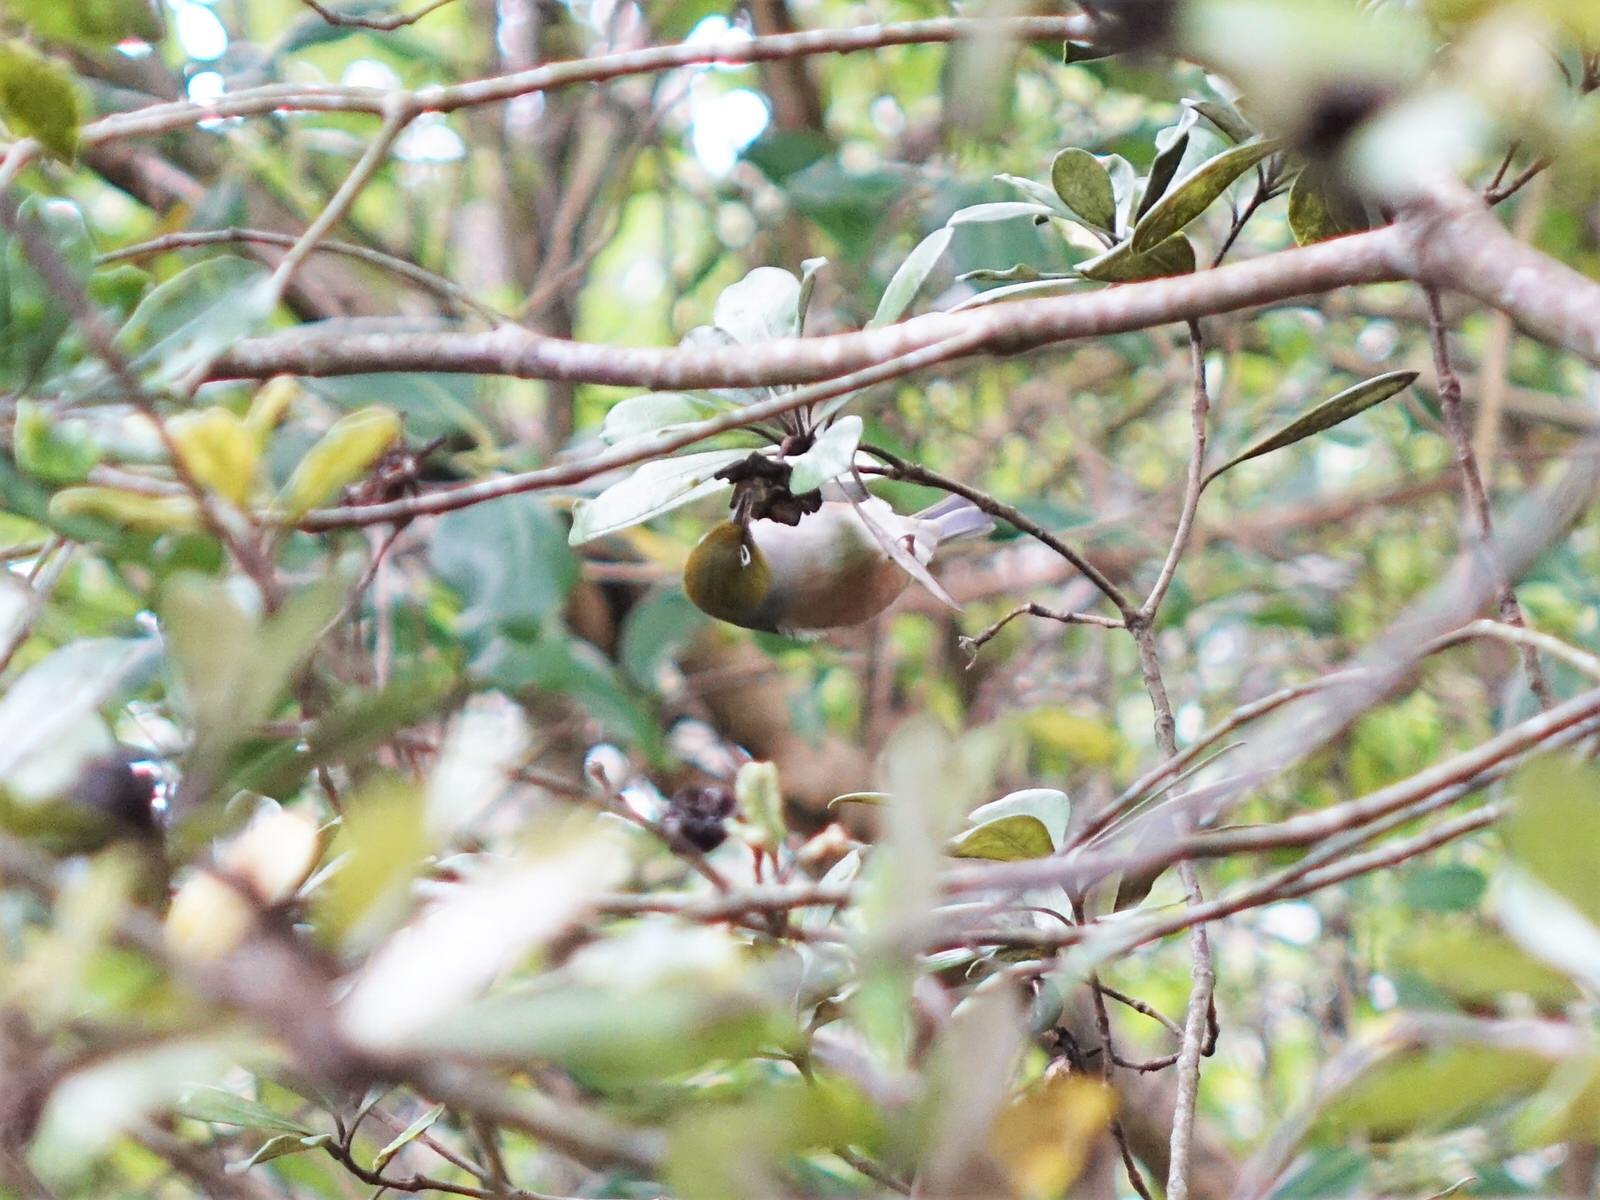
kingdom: Animalia
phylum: Chordata
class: Aves
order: Passeriformes
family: Zosteropidae
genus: Zosterops
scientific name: Zosterops lateralis
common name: Silvereye
